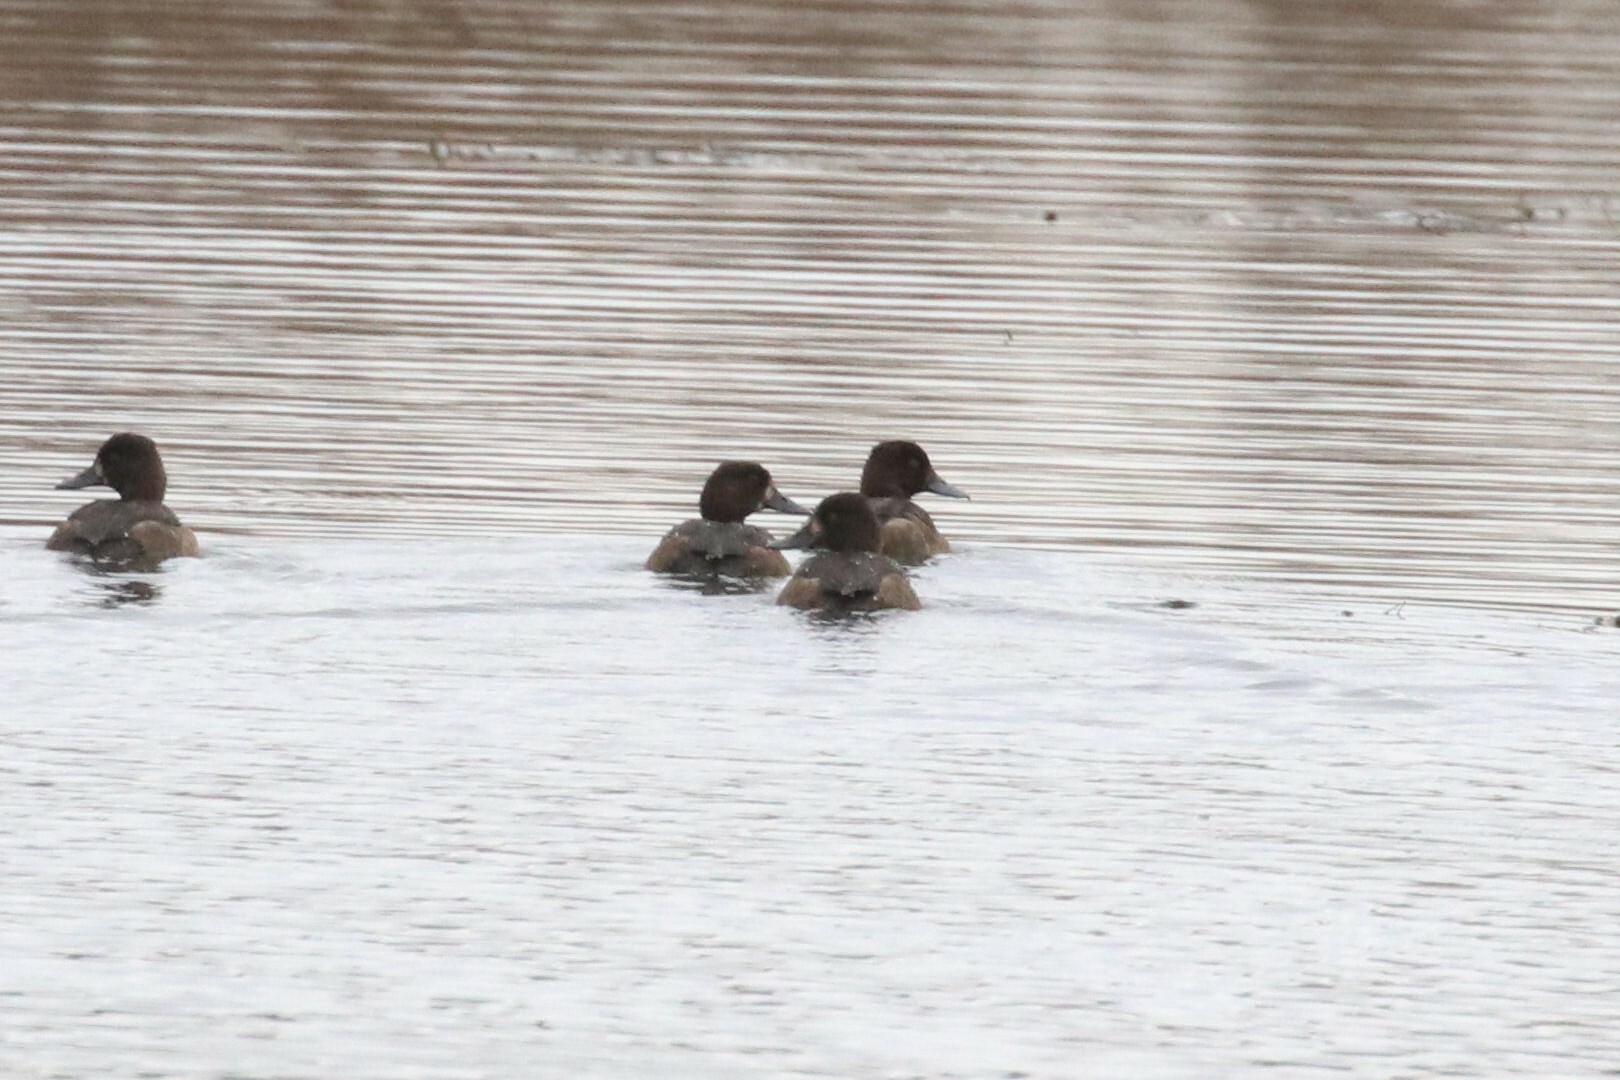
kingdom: Animalia
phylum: Chordata
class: Aves
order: Anseriformes
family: Anatidae
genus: Aythya
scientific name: Aythya fuligula
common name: Tufted duck
